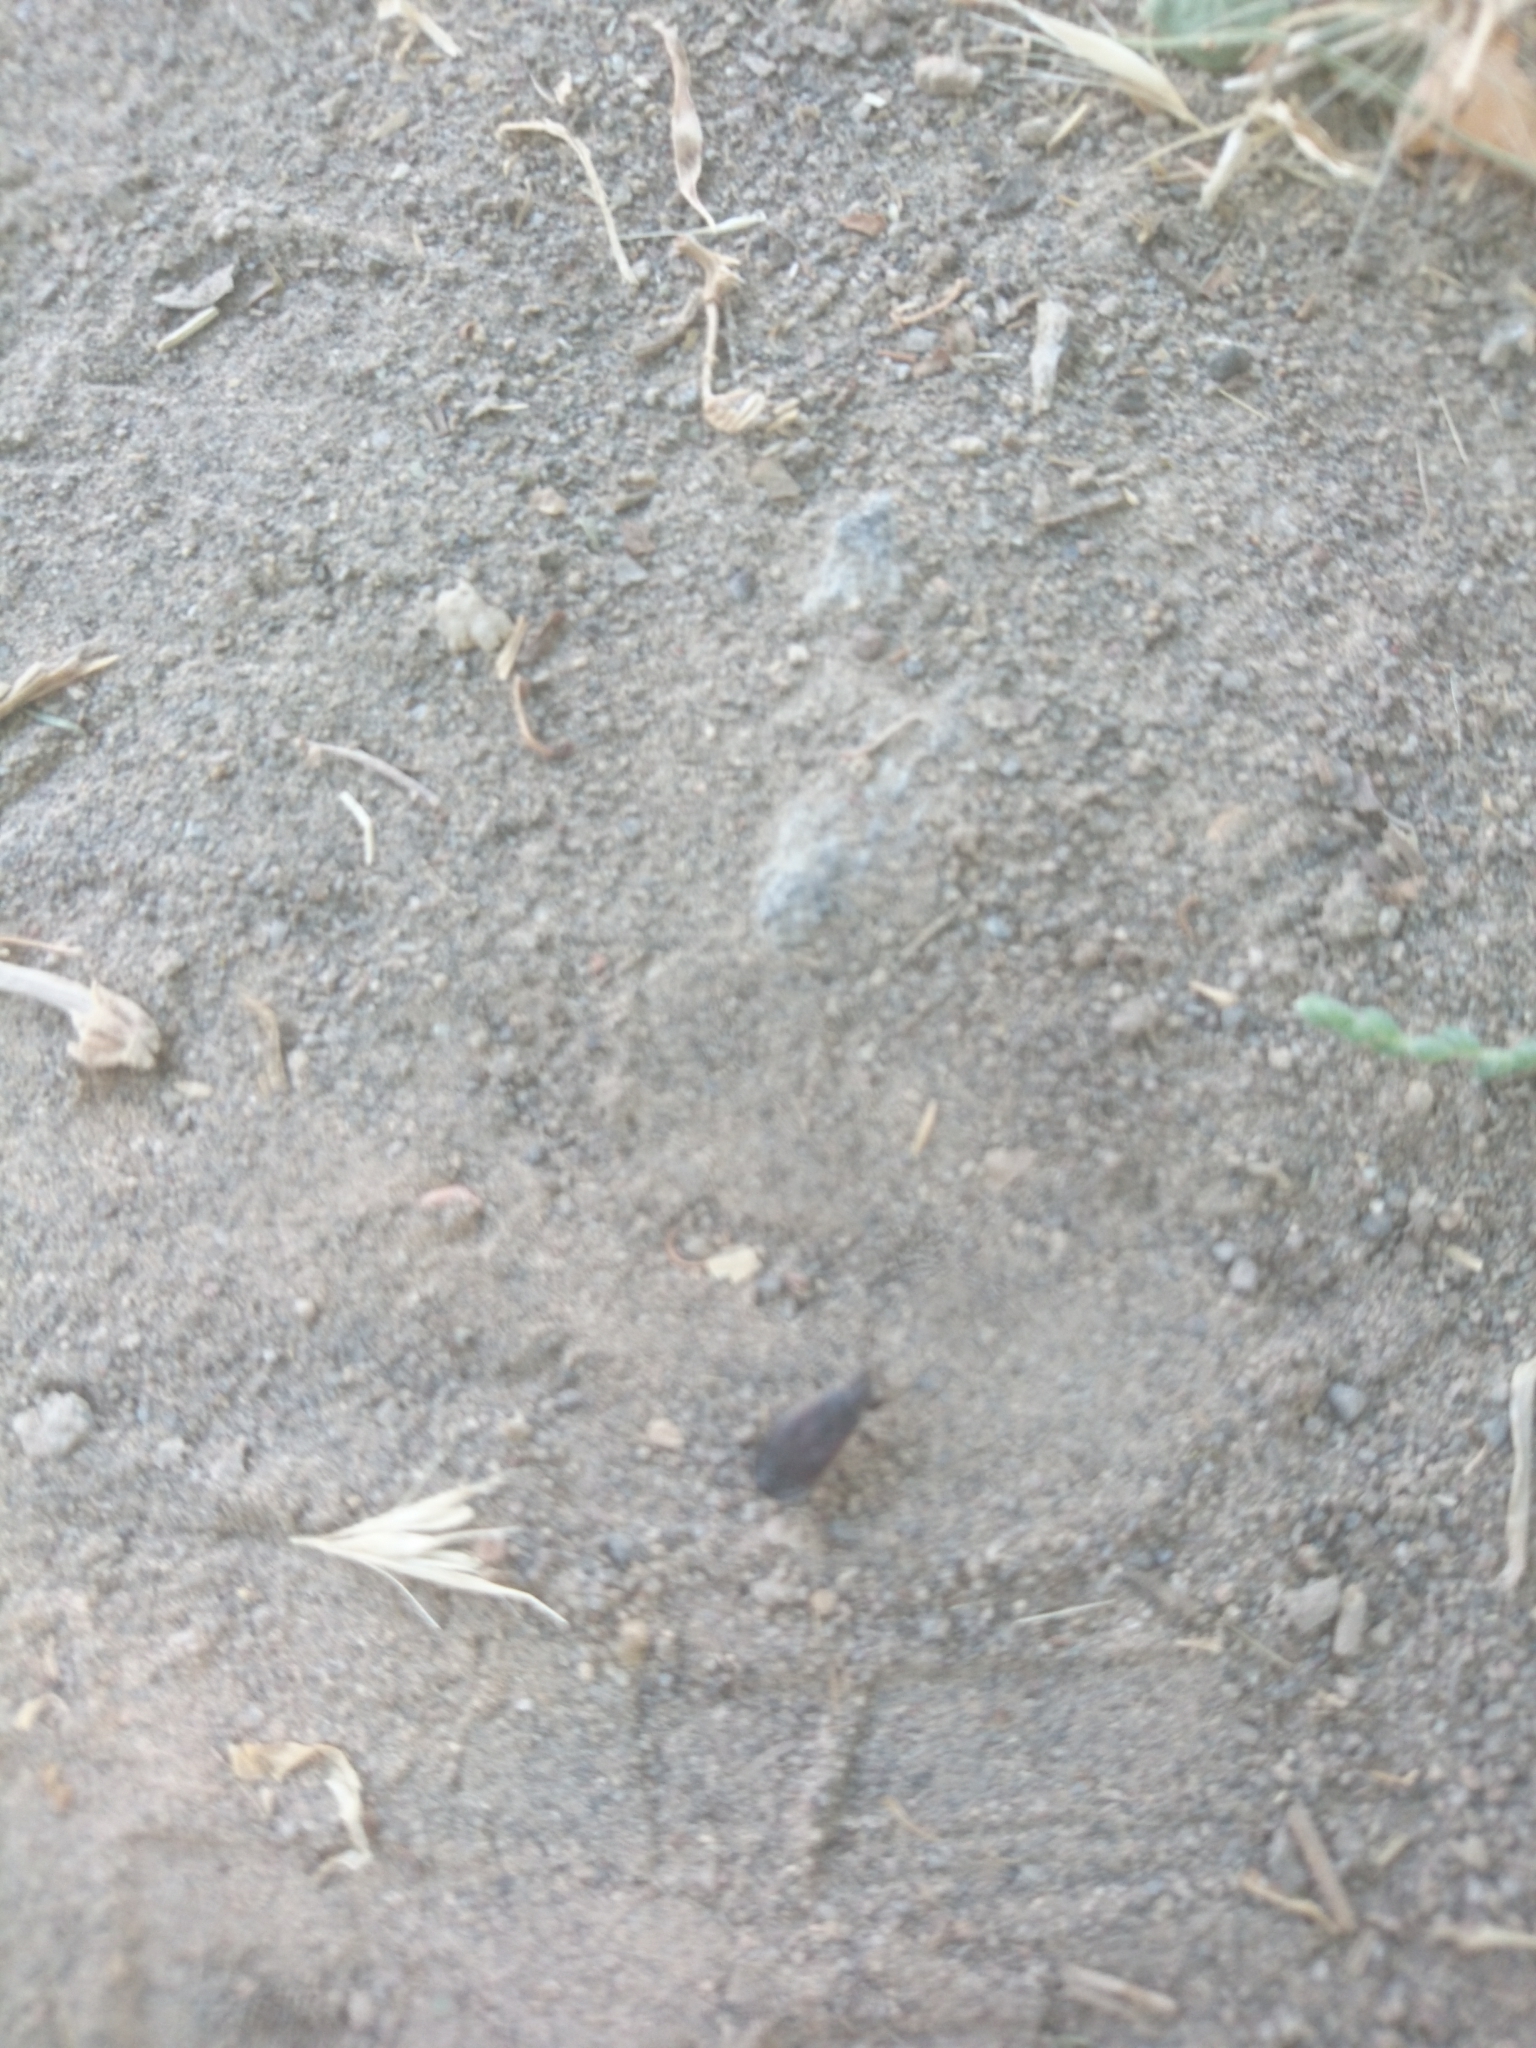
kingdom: Animalia
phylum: Arthropoda
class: Insecta
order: Hemiptera
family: Pyrrhocoridae
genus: Pyrrhocoris
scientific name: Pyrrhocoris marginatus
